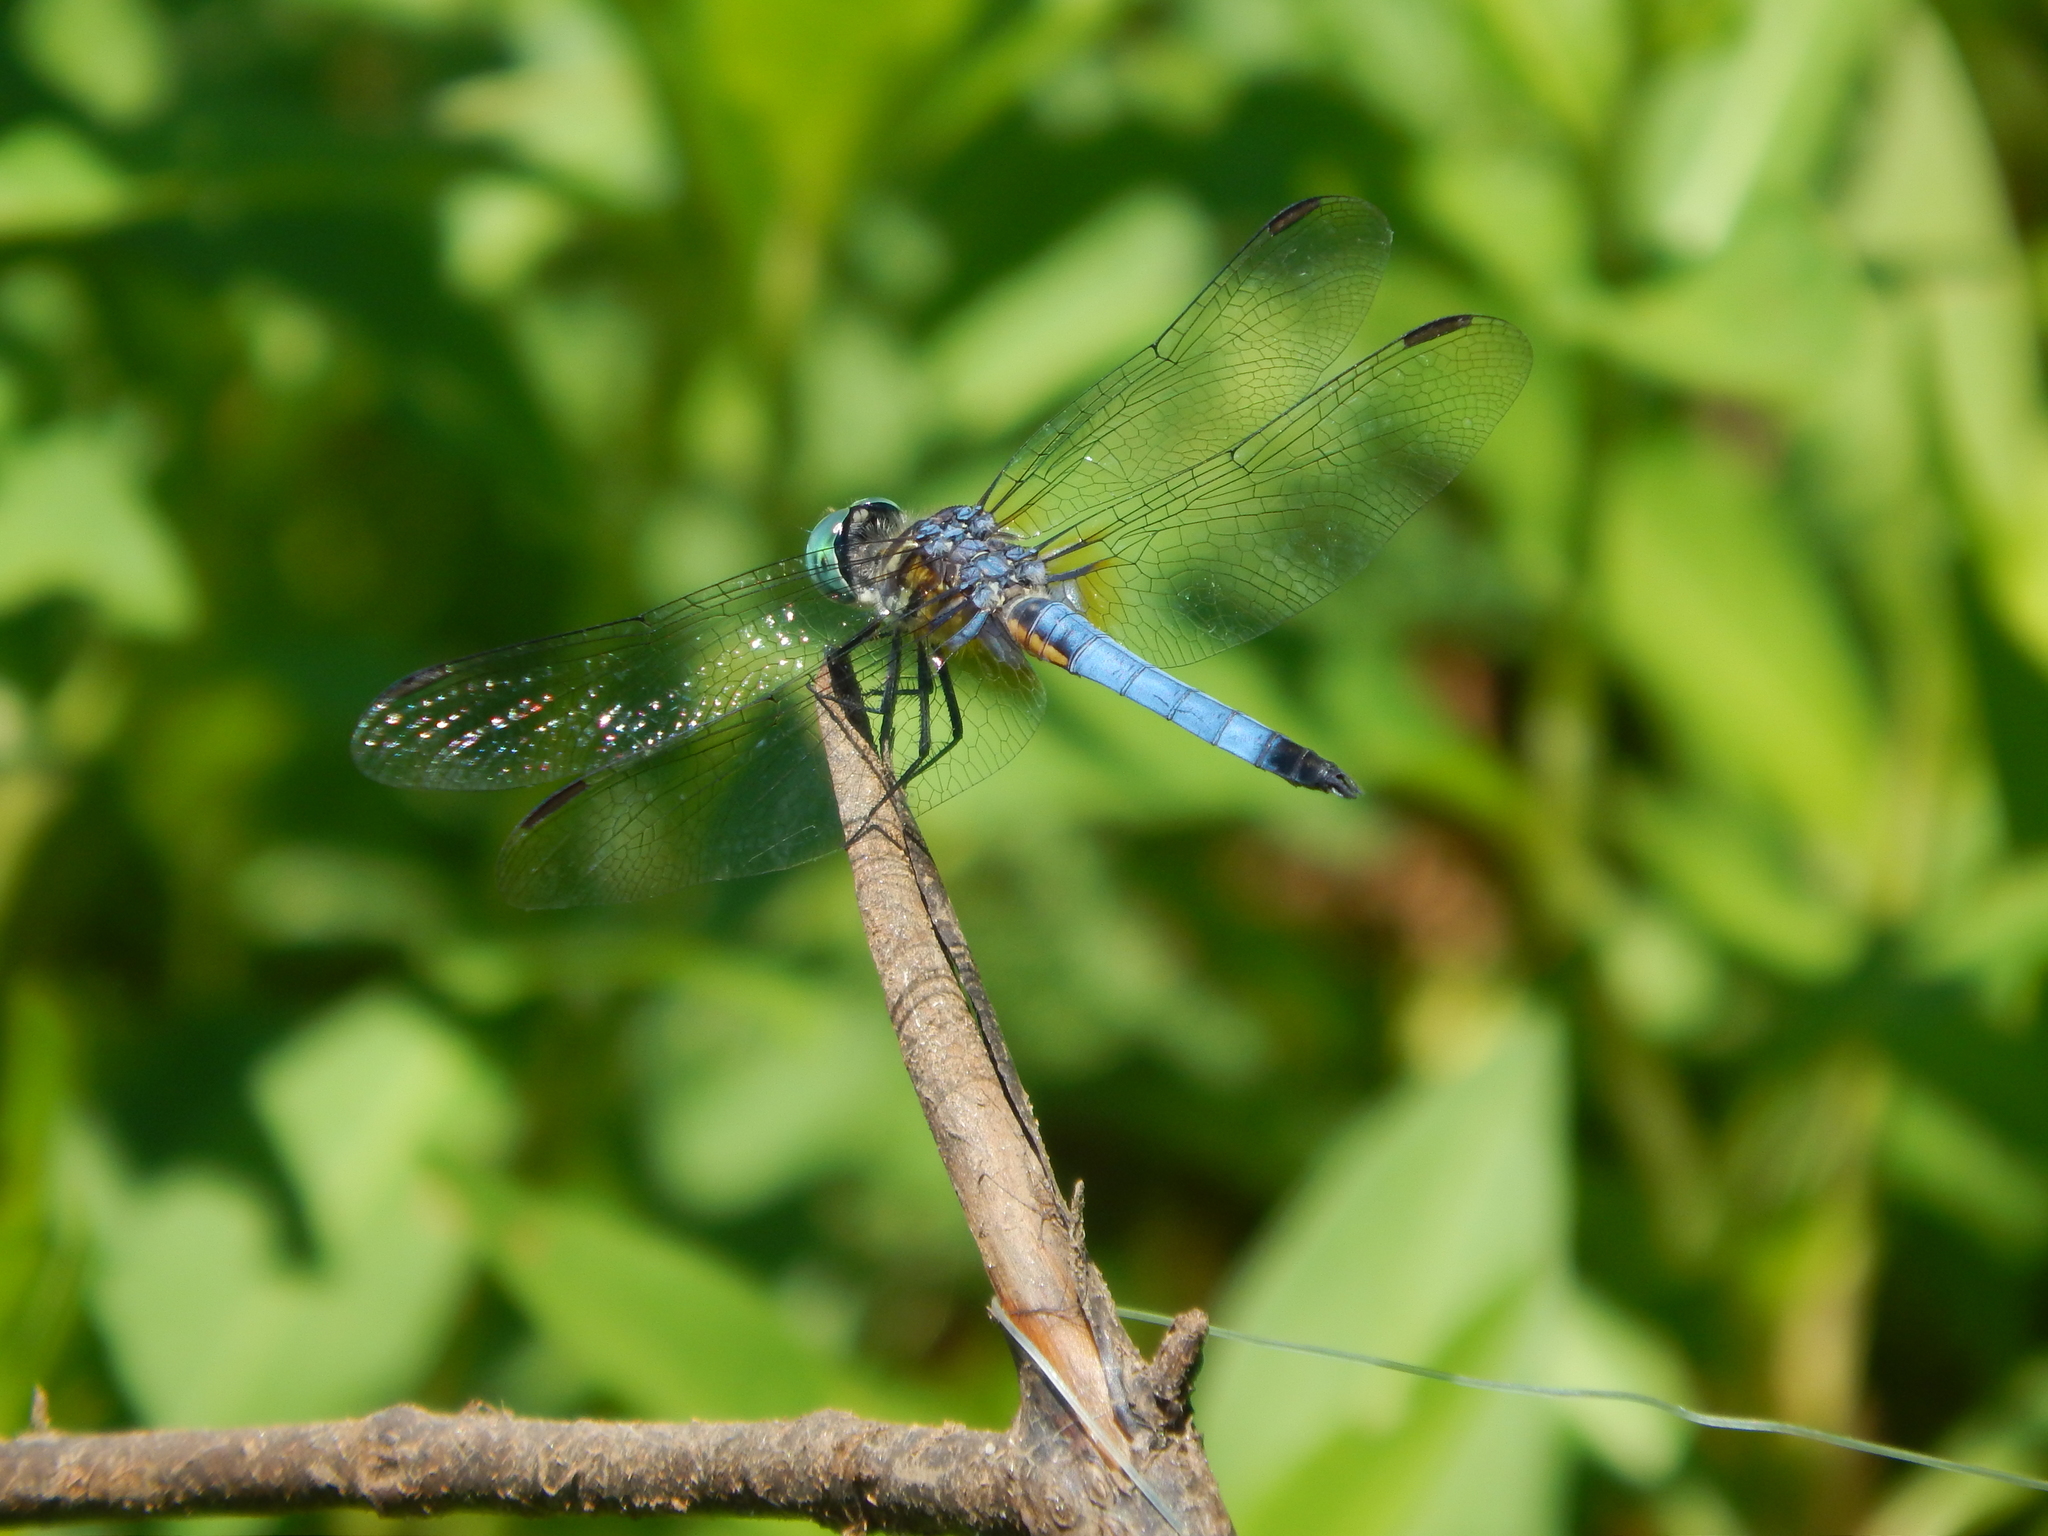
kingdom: Animalia
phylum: Arthropoda
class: Insecta
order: Odonata
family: Libellulidae
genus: Pachydiplax
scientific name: Pachydiplax longipennis
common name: Blue dasher
